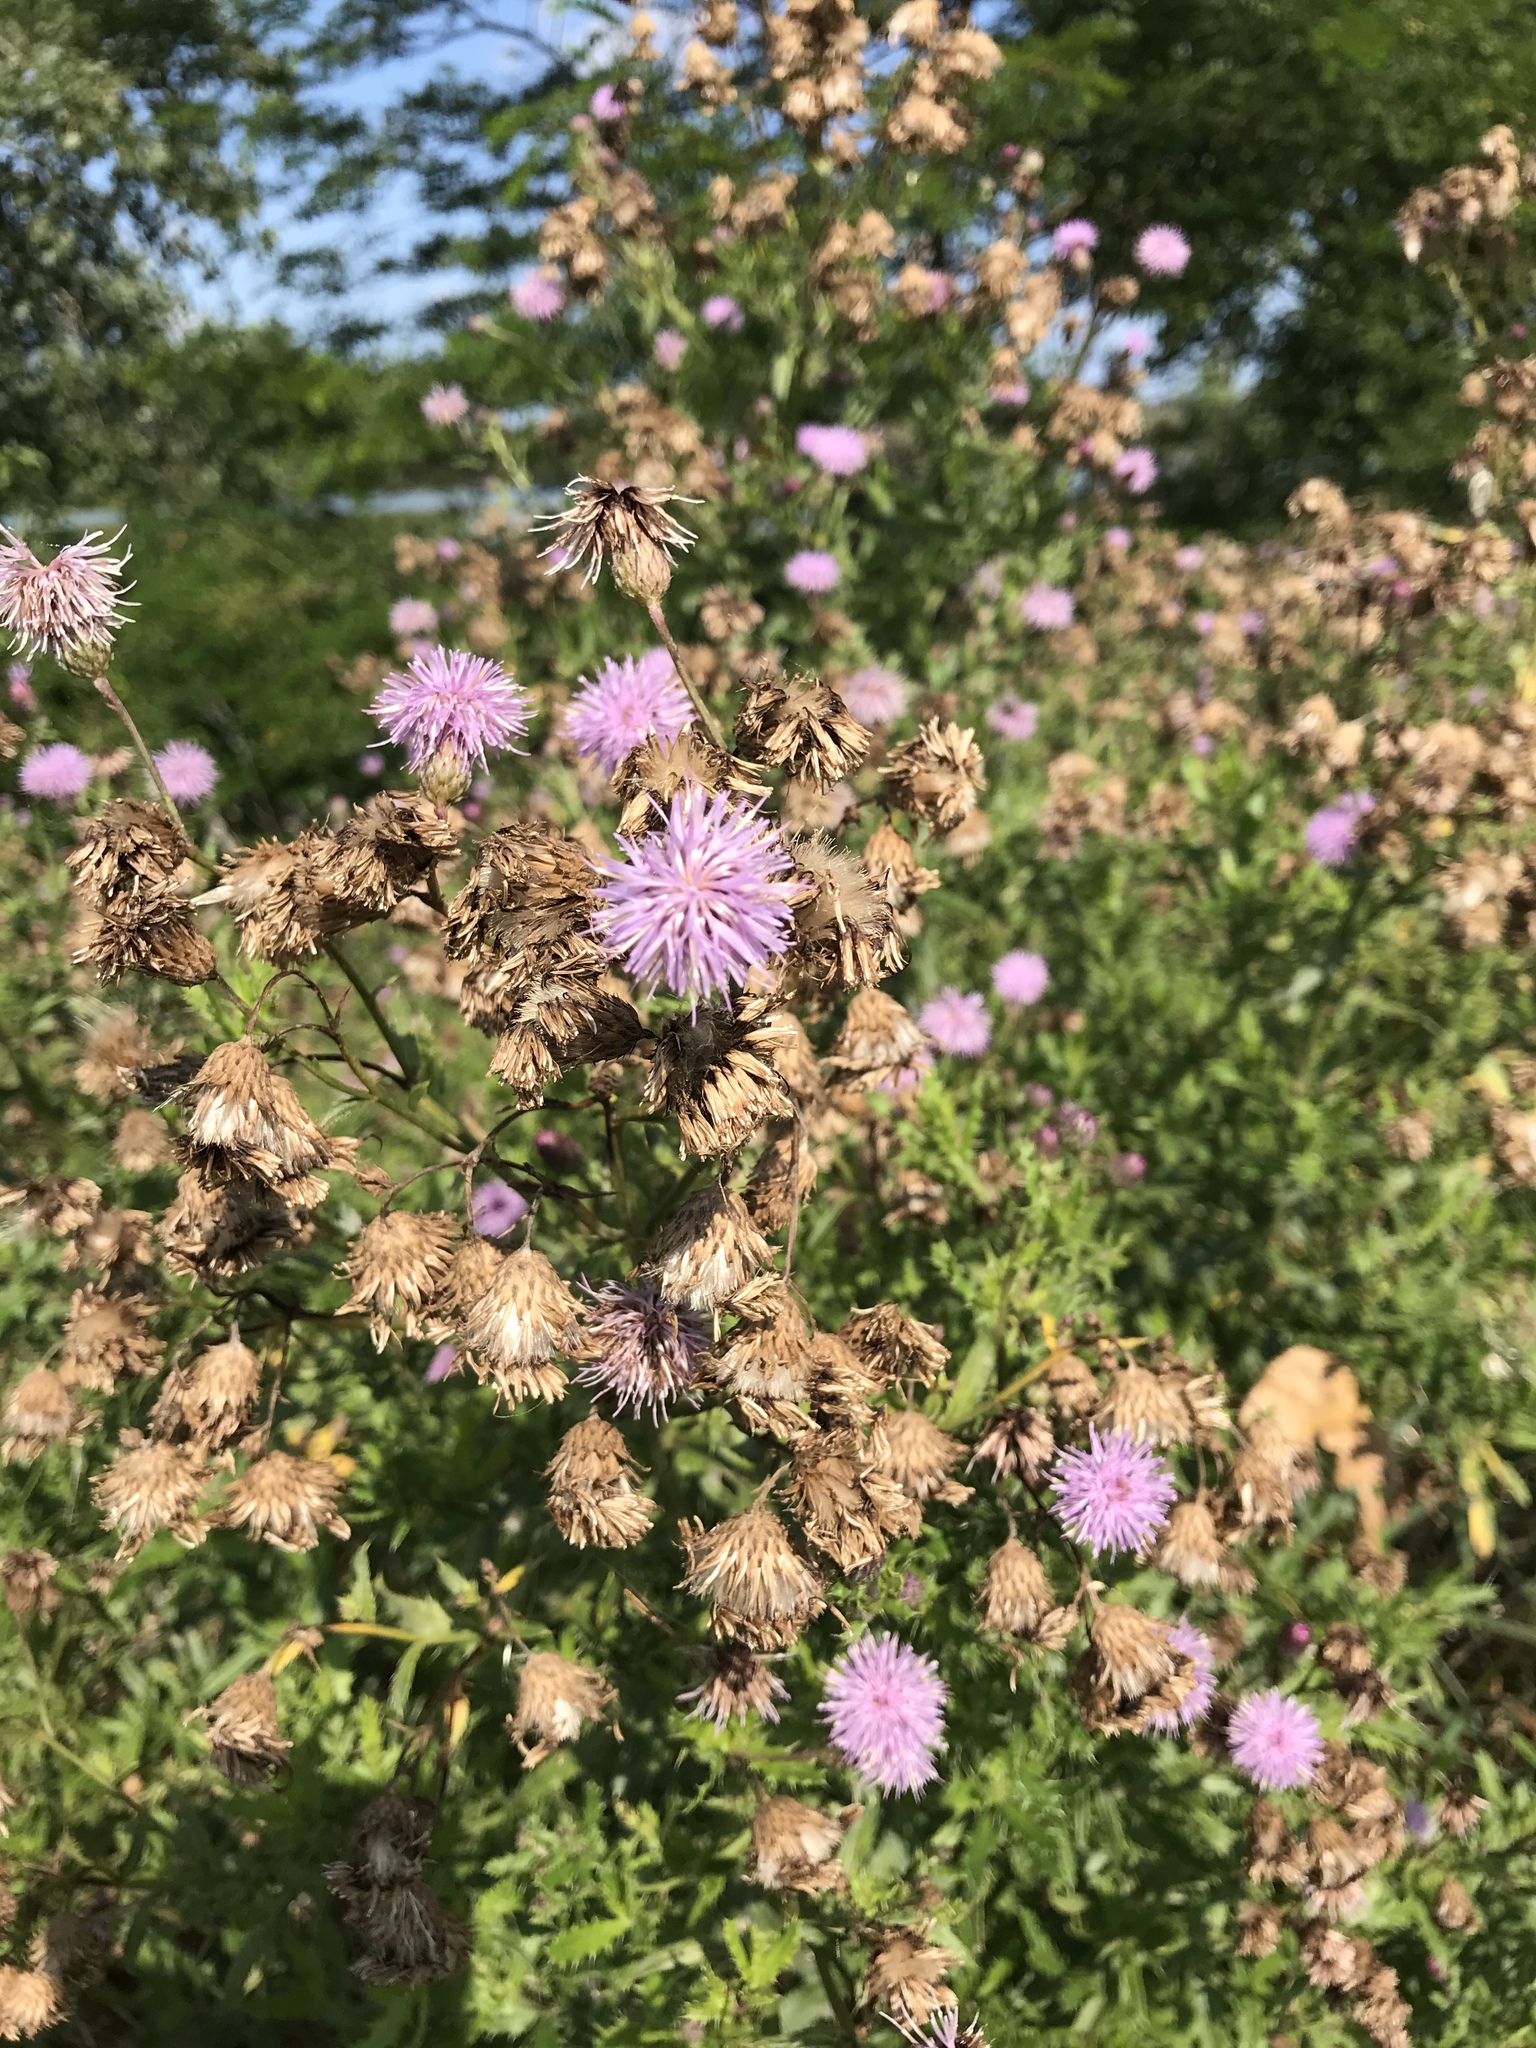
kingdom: Plantae
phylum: Tracheophyta
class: Magnoliopsida
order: Asterales
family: Asteraceae
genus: Cirsium
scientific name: Cirsium arvense
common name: Creeping thistle
